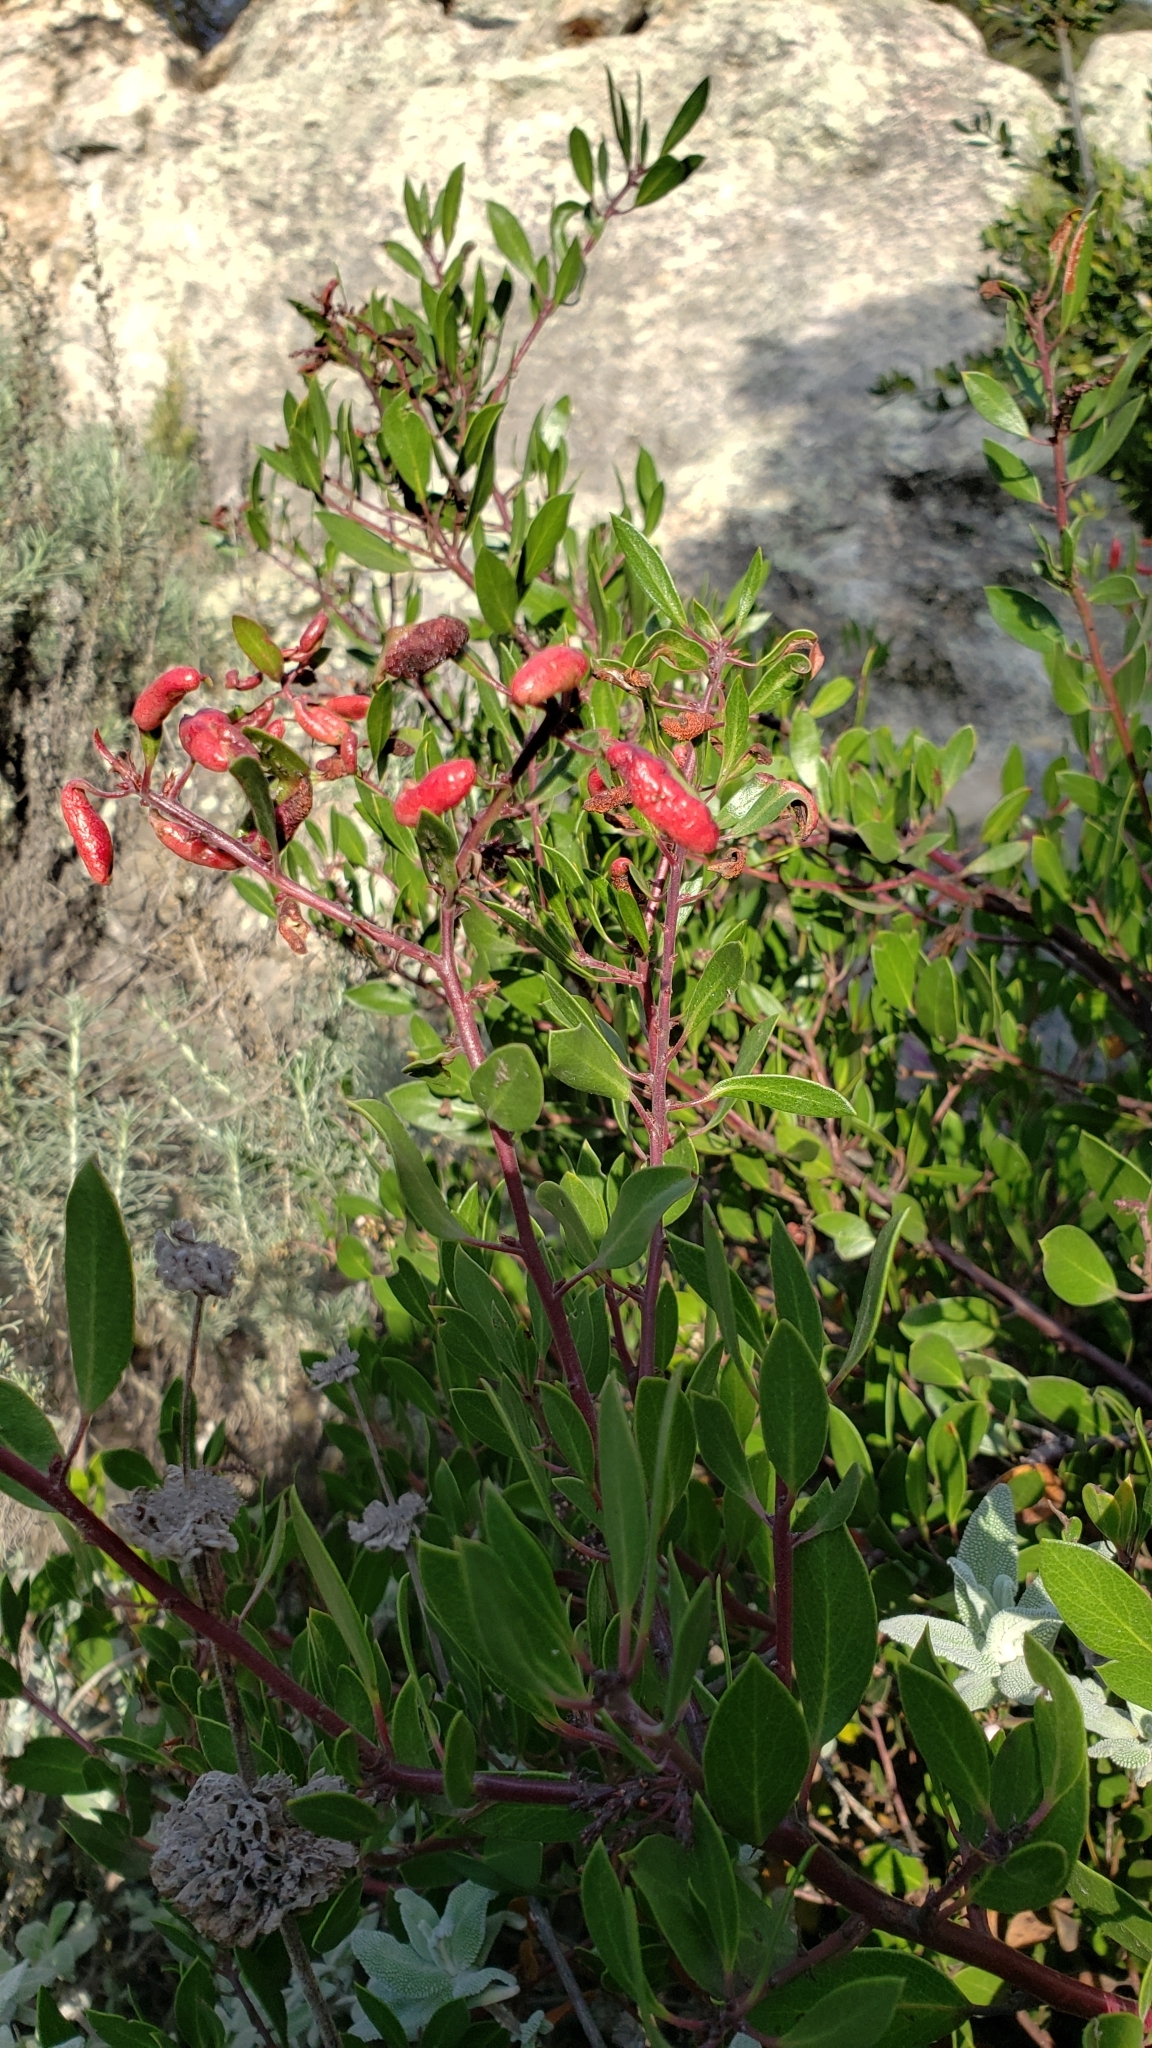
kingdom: Animalia
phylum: Arthropoda
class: Insecta
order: Hemiptera
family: Aphididae
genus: Tamalia
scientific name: Tamalia coweni
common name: Manzanita leafgall aphid
